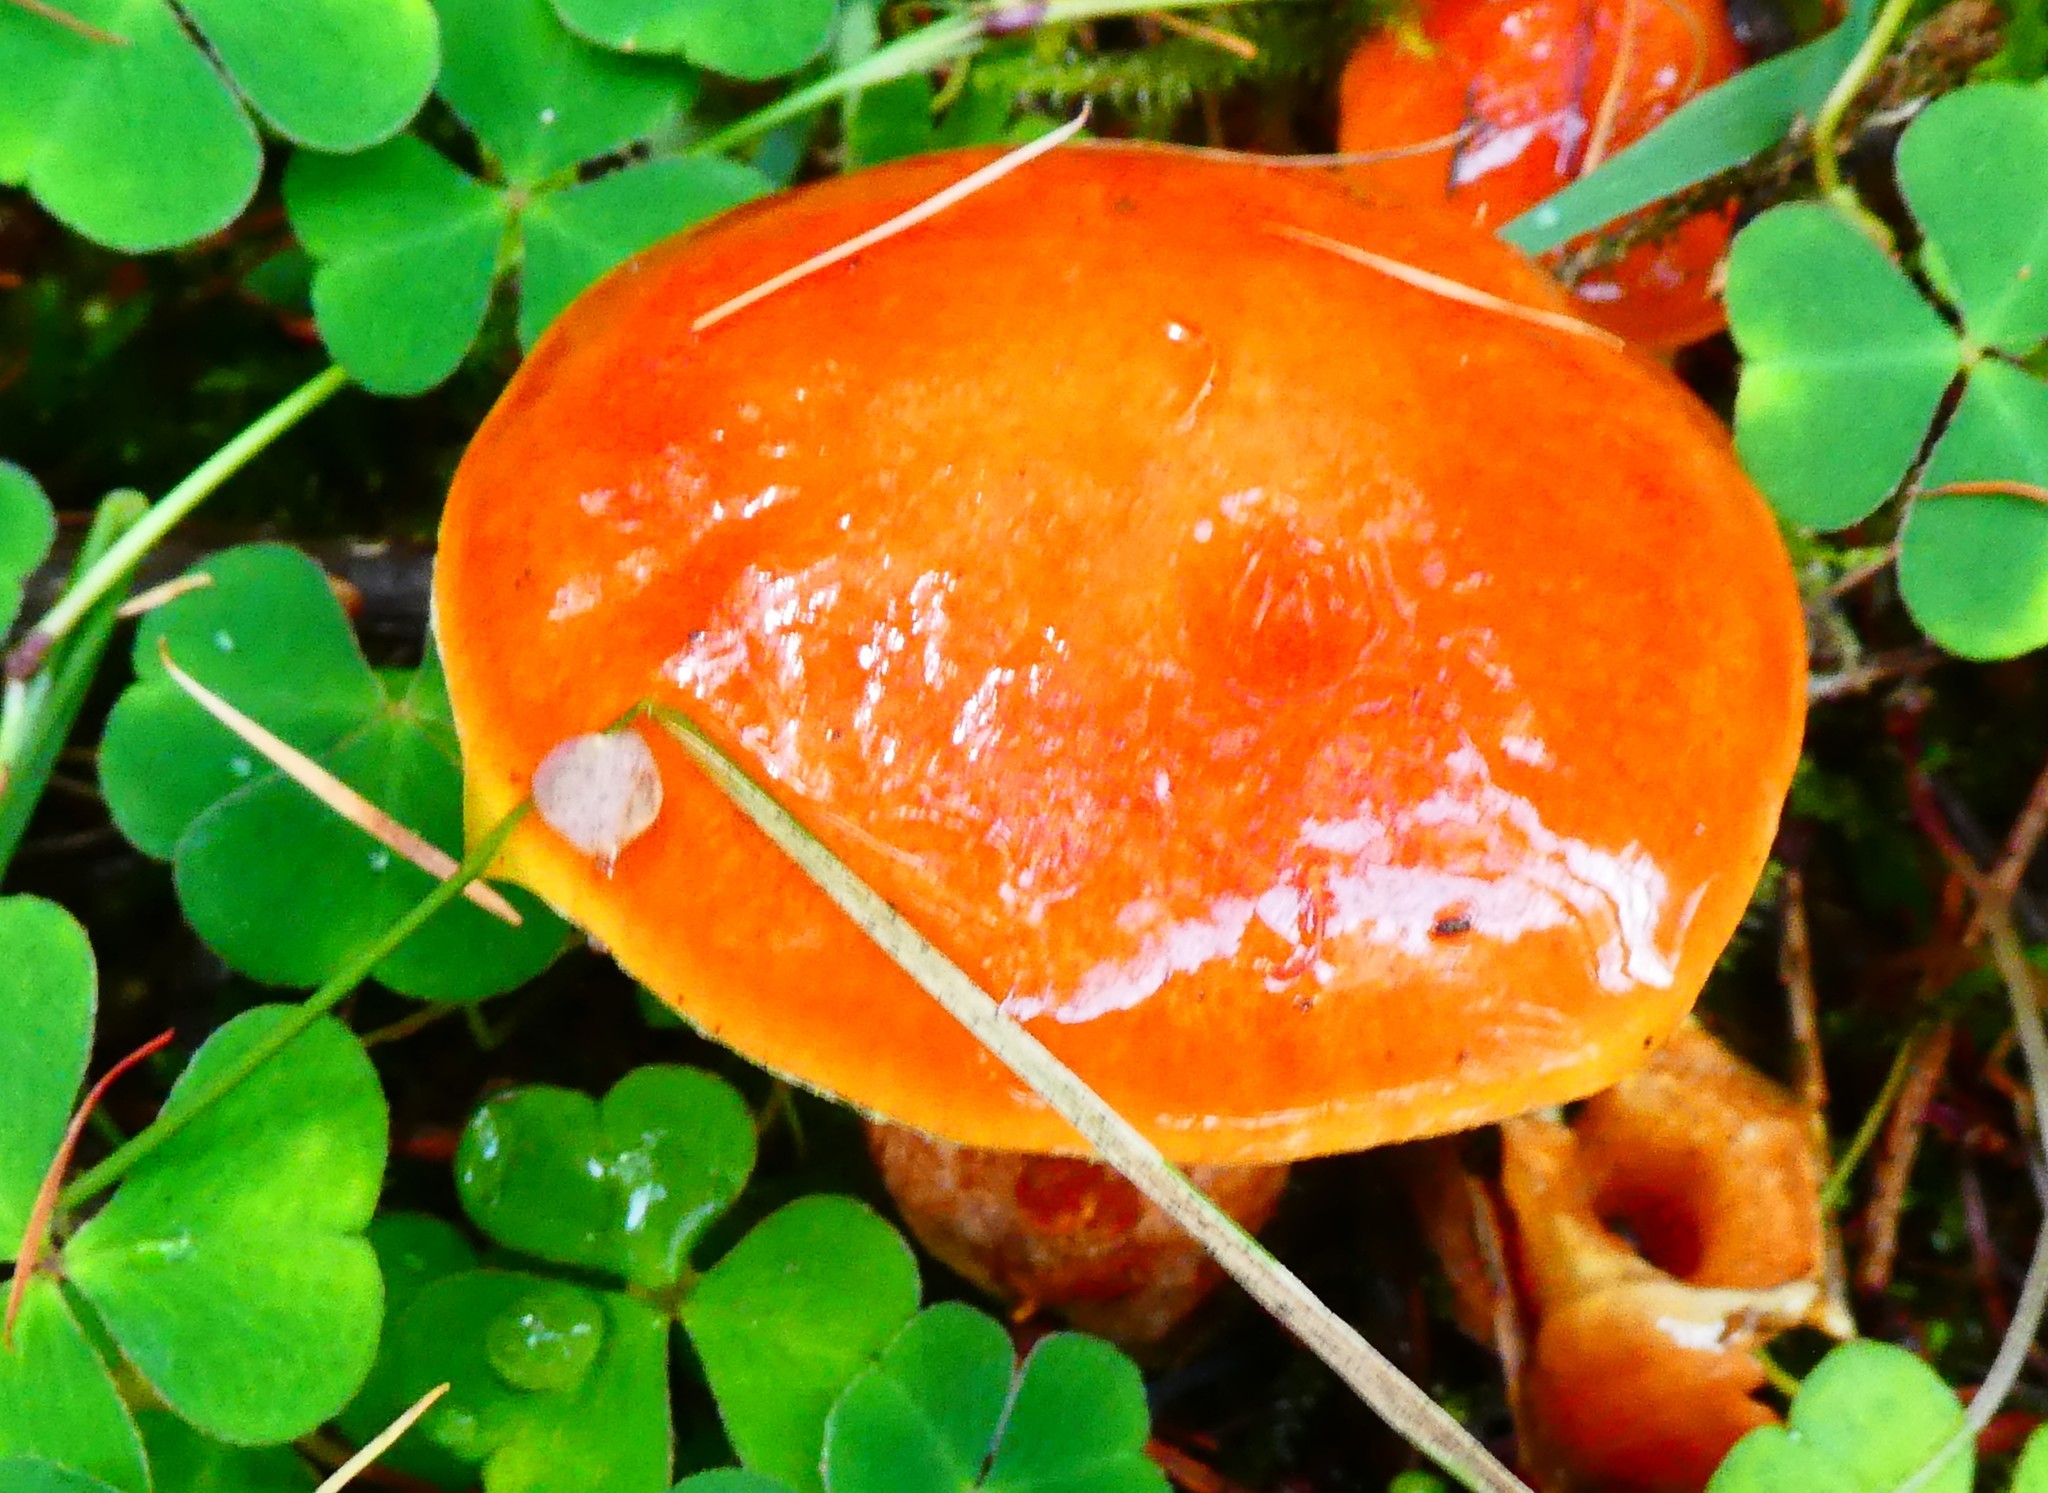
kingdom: Fungi
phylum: Basidiomycota
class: Agaricomycetes
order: Boletales
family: Suillaceae
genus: Suillus
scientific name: Suillus grevillei
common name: Larch bolete
